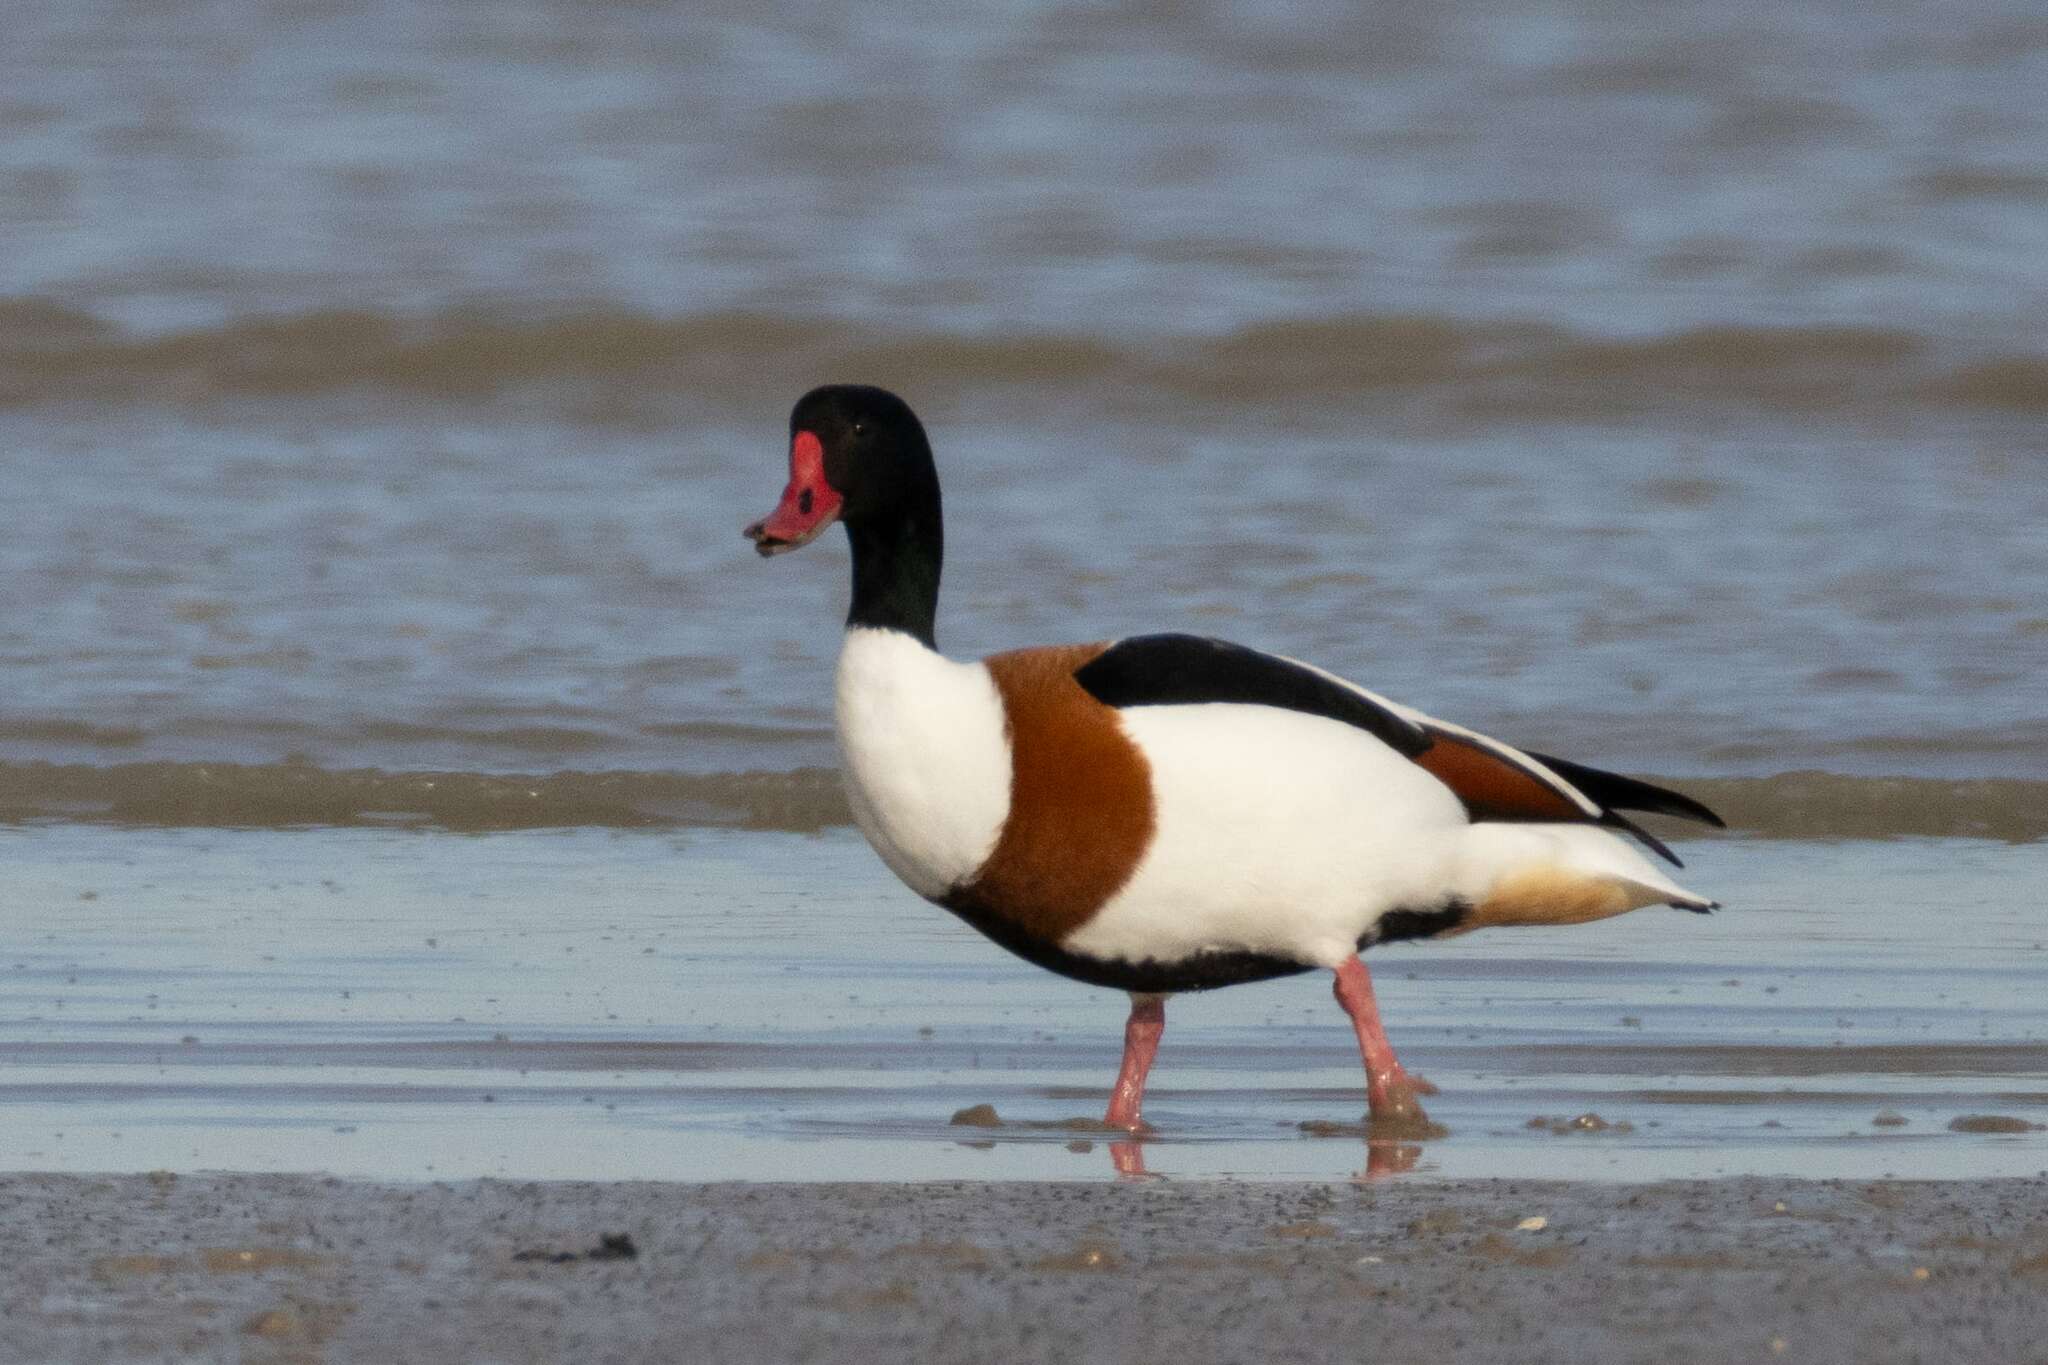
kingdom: Animalia
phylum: Chordata
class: Aves
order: Anseriformes
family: Anatidae
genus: Tadorna
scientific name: Tadorna tadorna
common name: Common shelduck
